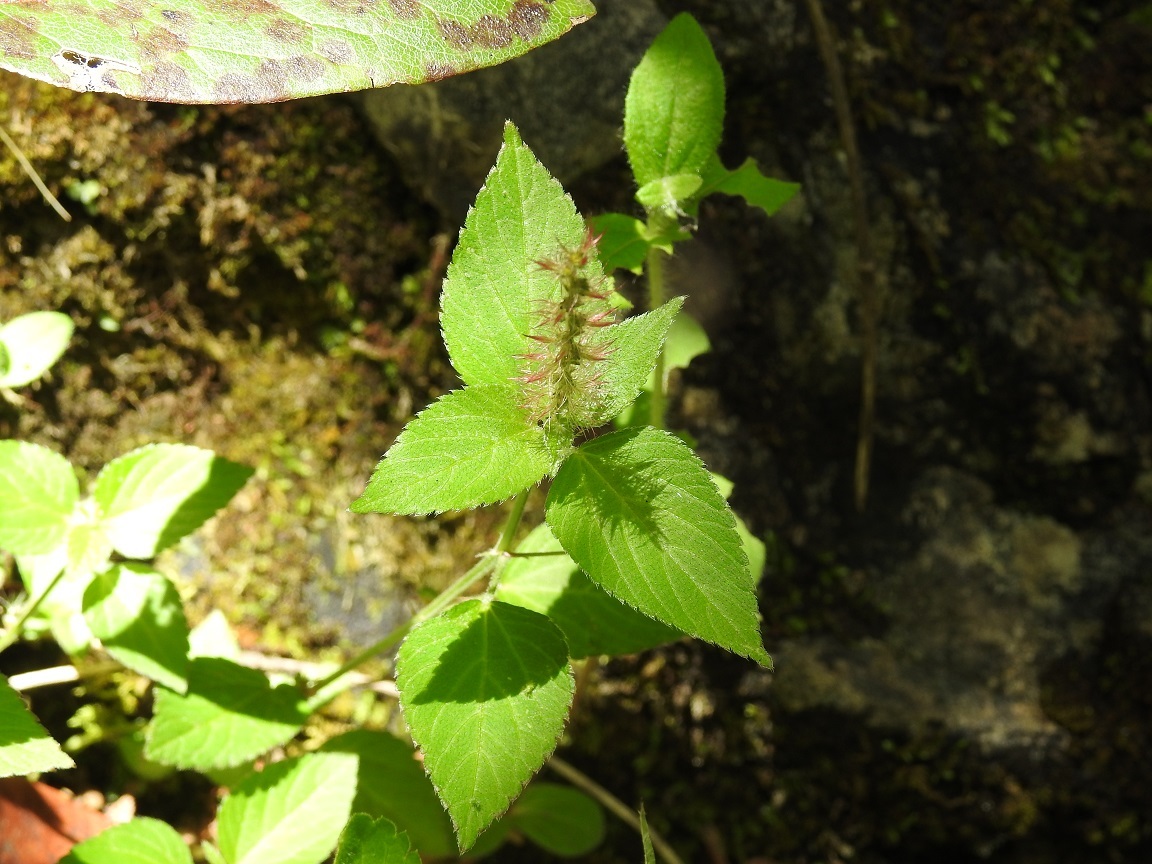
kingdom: Plantae
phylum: Tracheophyta
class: Magnoliopsida
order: Malpighiales
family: Euphorbiaceae
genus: Acalypha
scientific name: Acalypha phleoides
